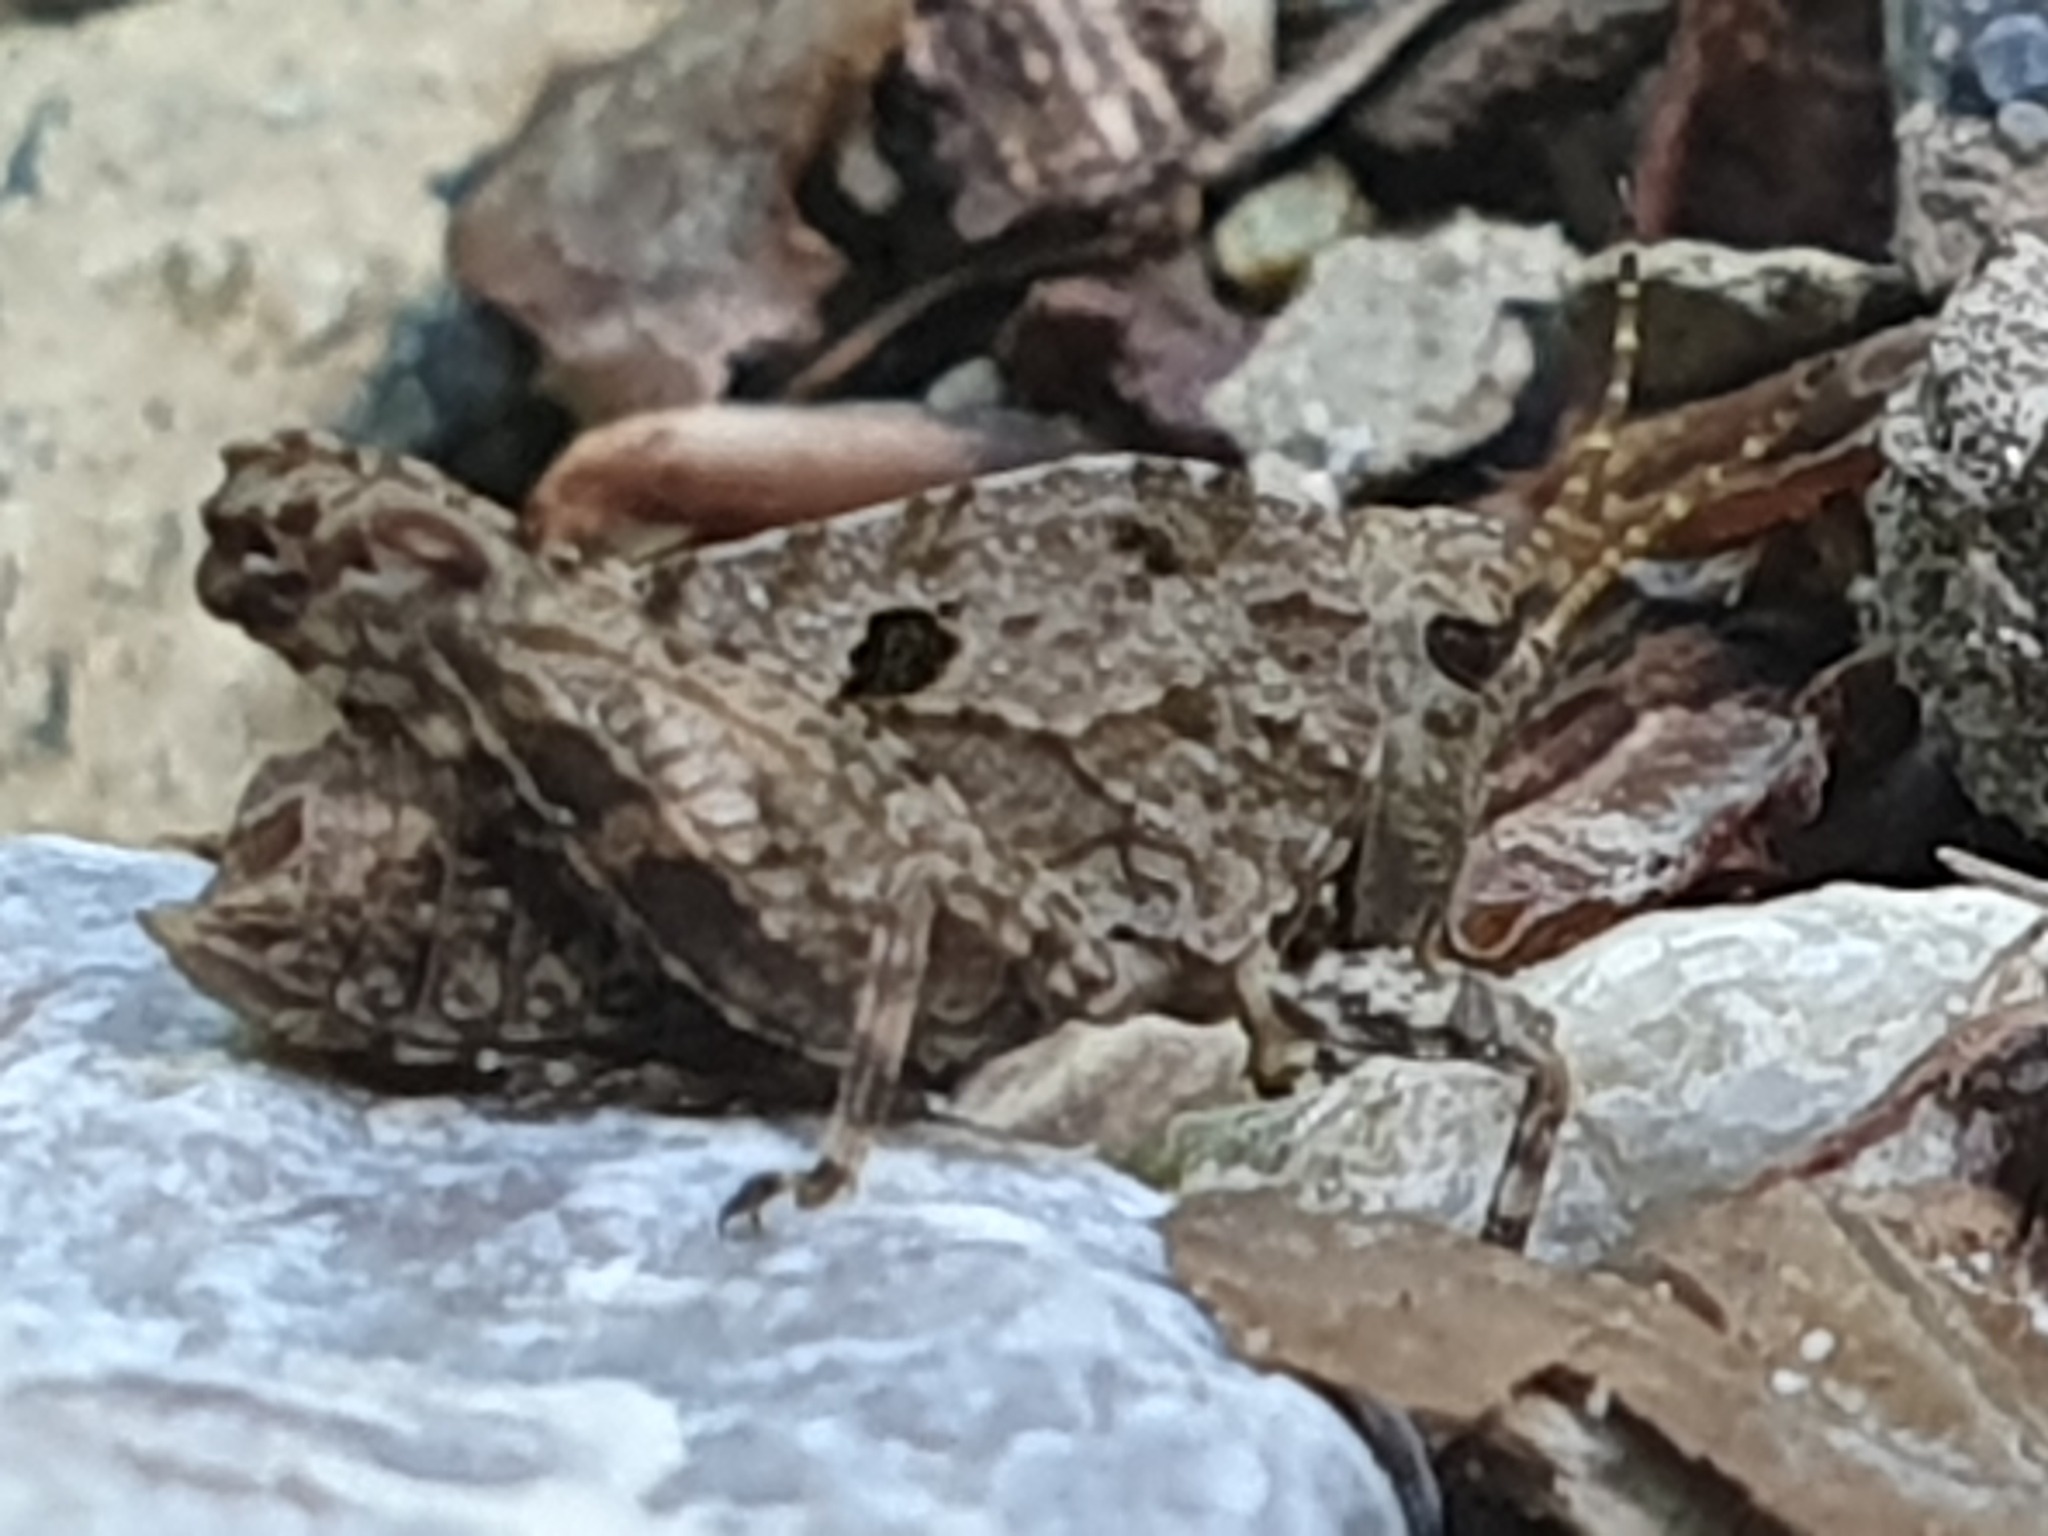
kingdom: Animalia
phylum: Arthropoda
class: Insecta
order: Orthoptera
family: Tetrigidae
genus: Tetrix
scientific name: Tetrix transsylvanica
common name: Transsylvanian wingless groundhopper
